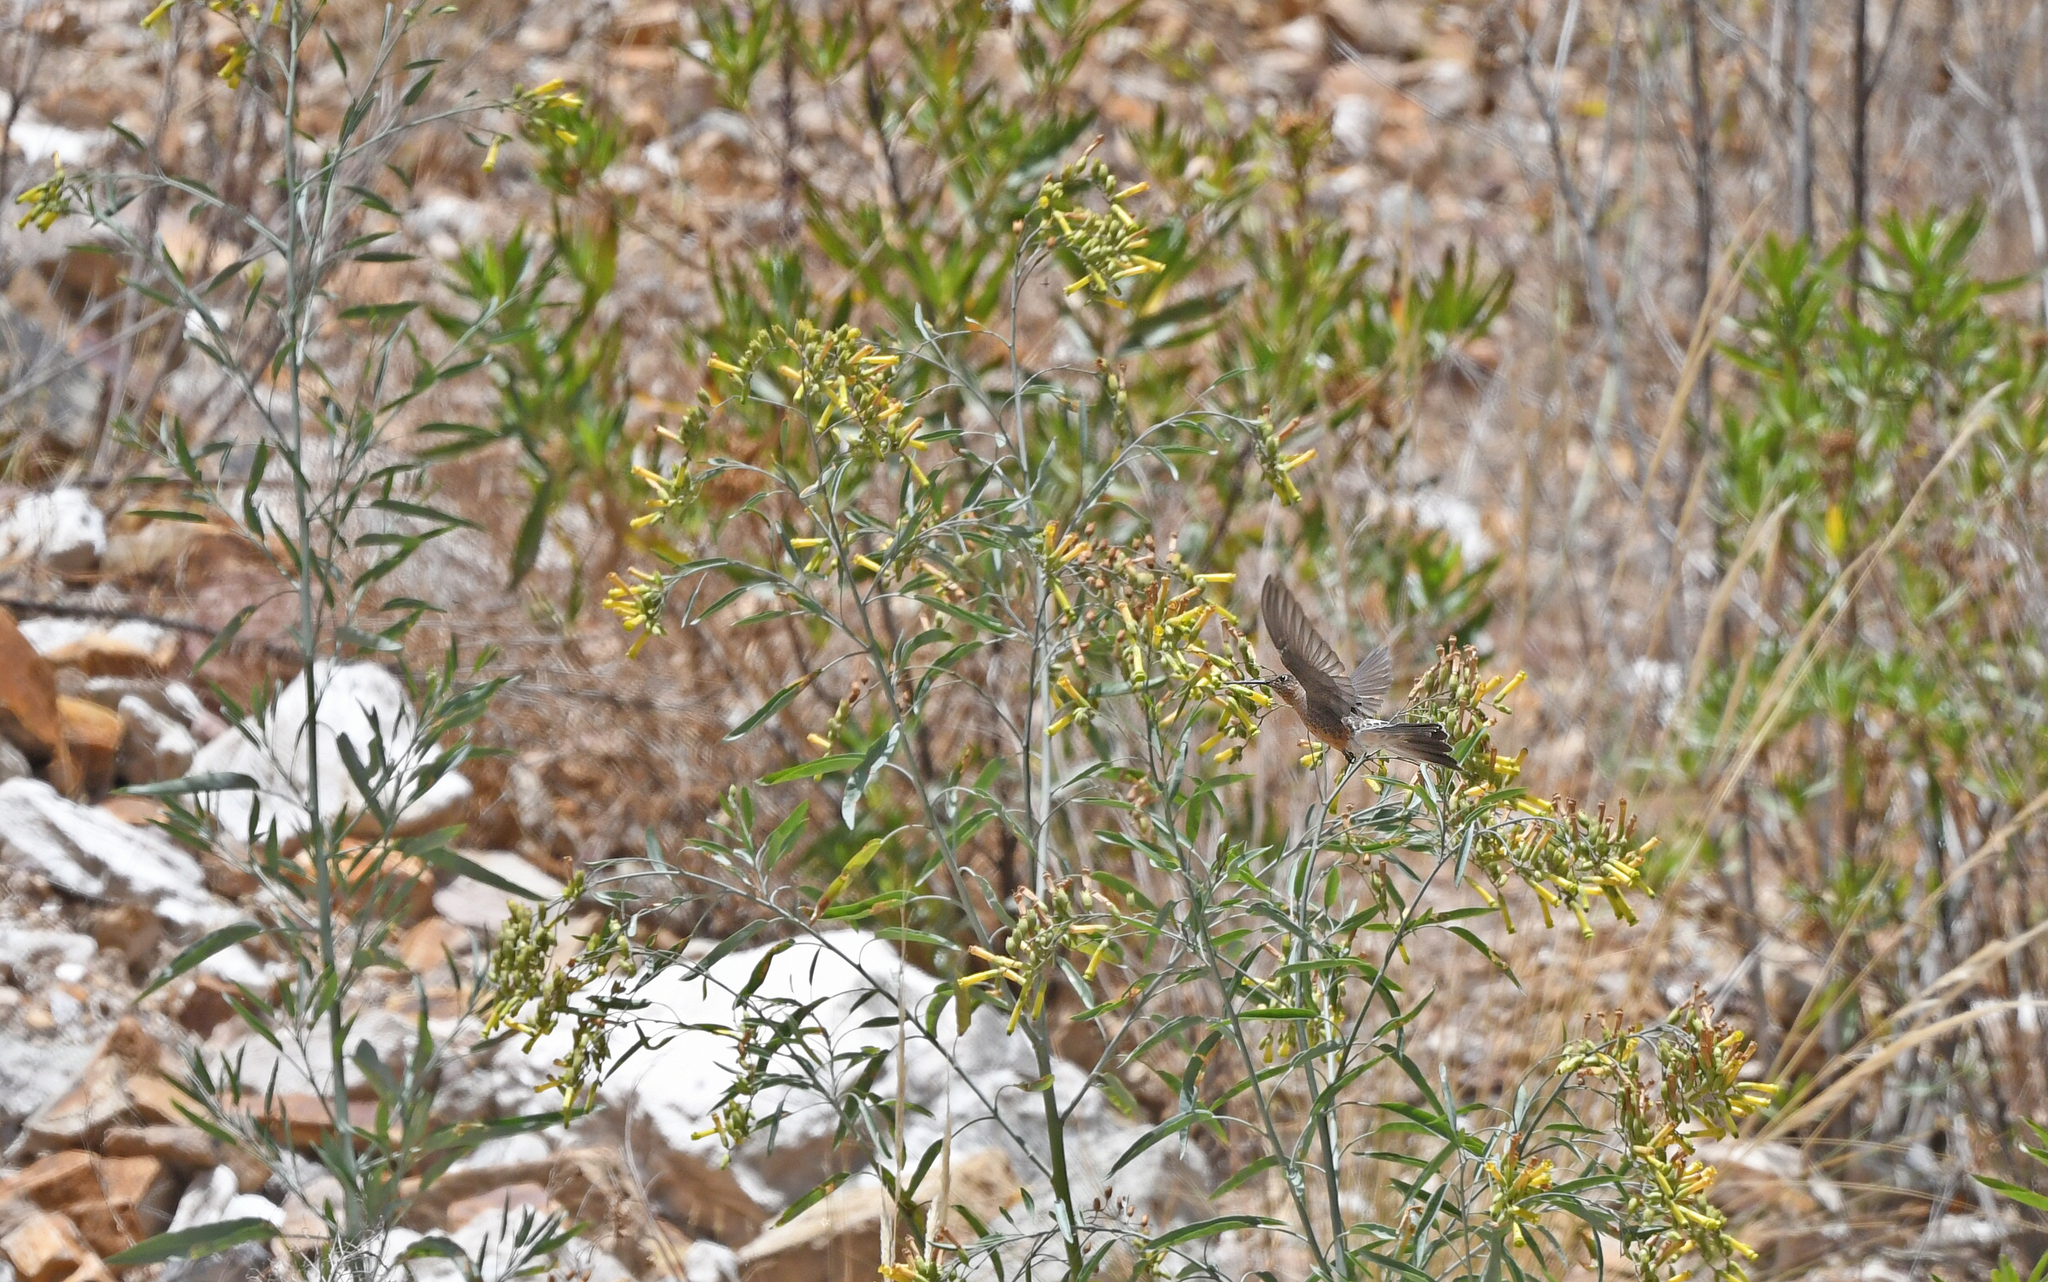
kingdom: Animalia
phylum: Chordata
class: Aves
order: Apodiformes
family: Trochilidae
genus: Patagona
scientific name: Patagona gigas
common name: Giant hummingbird
